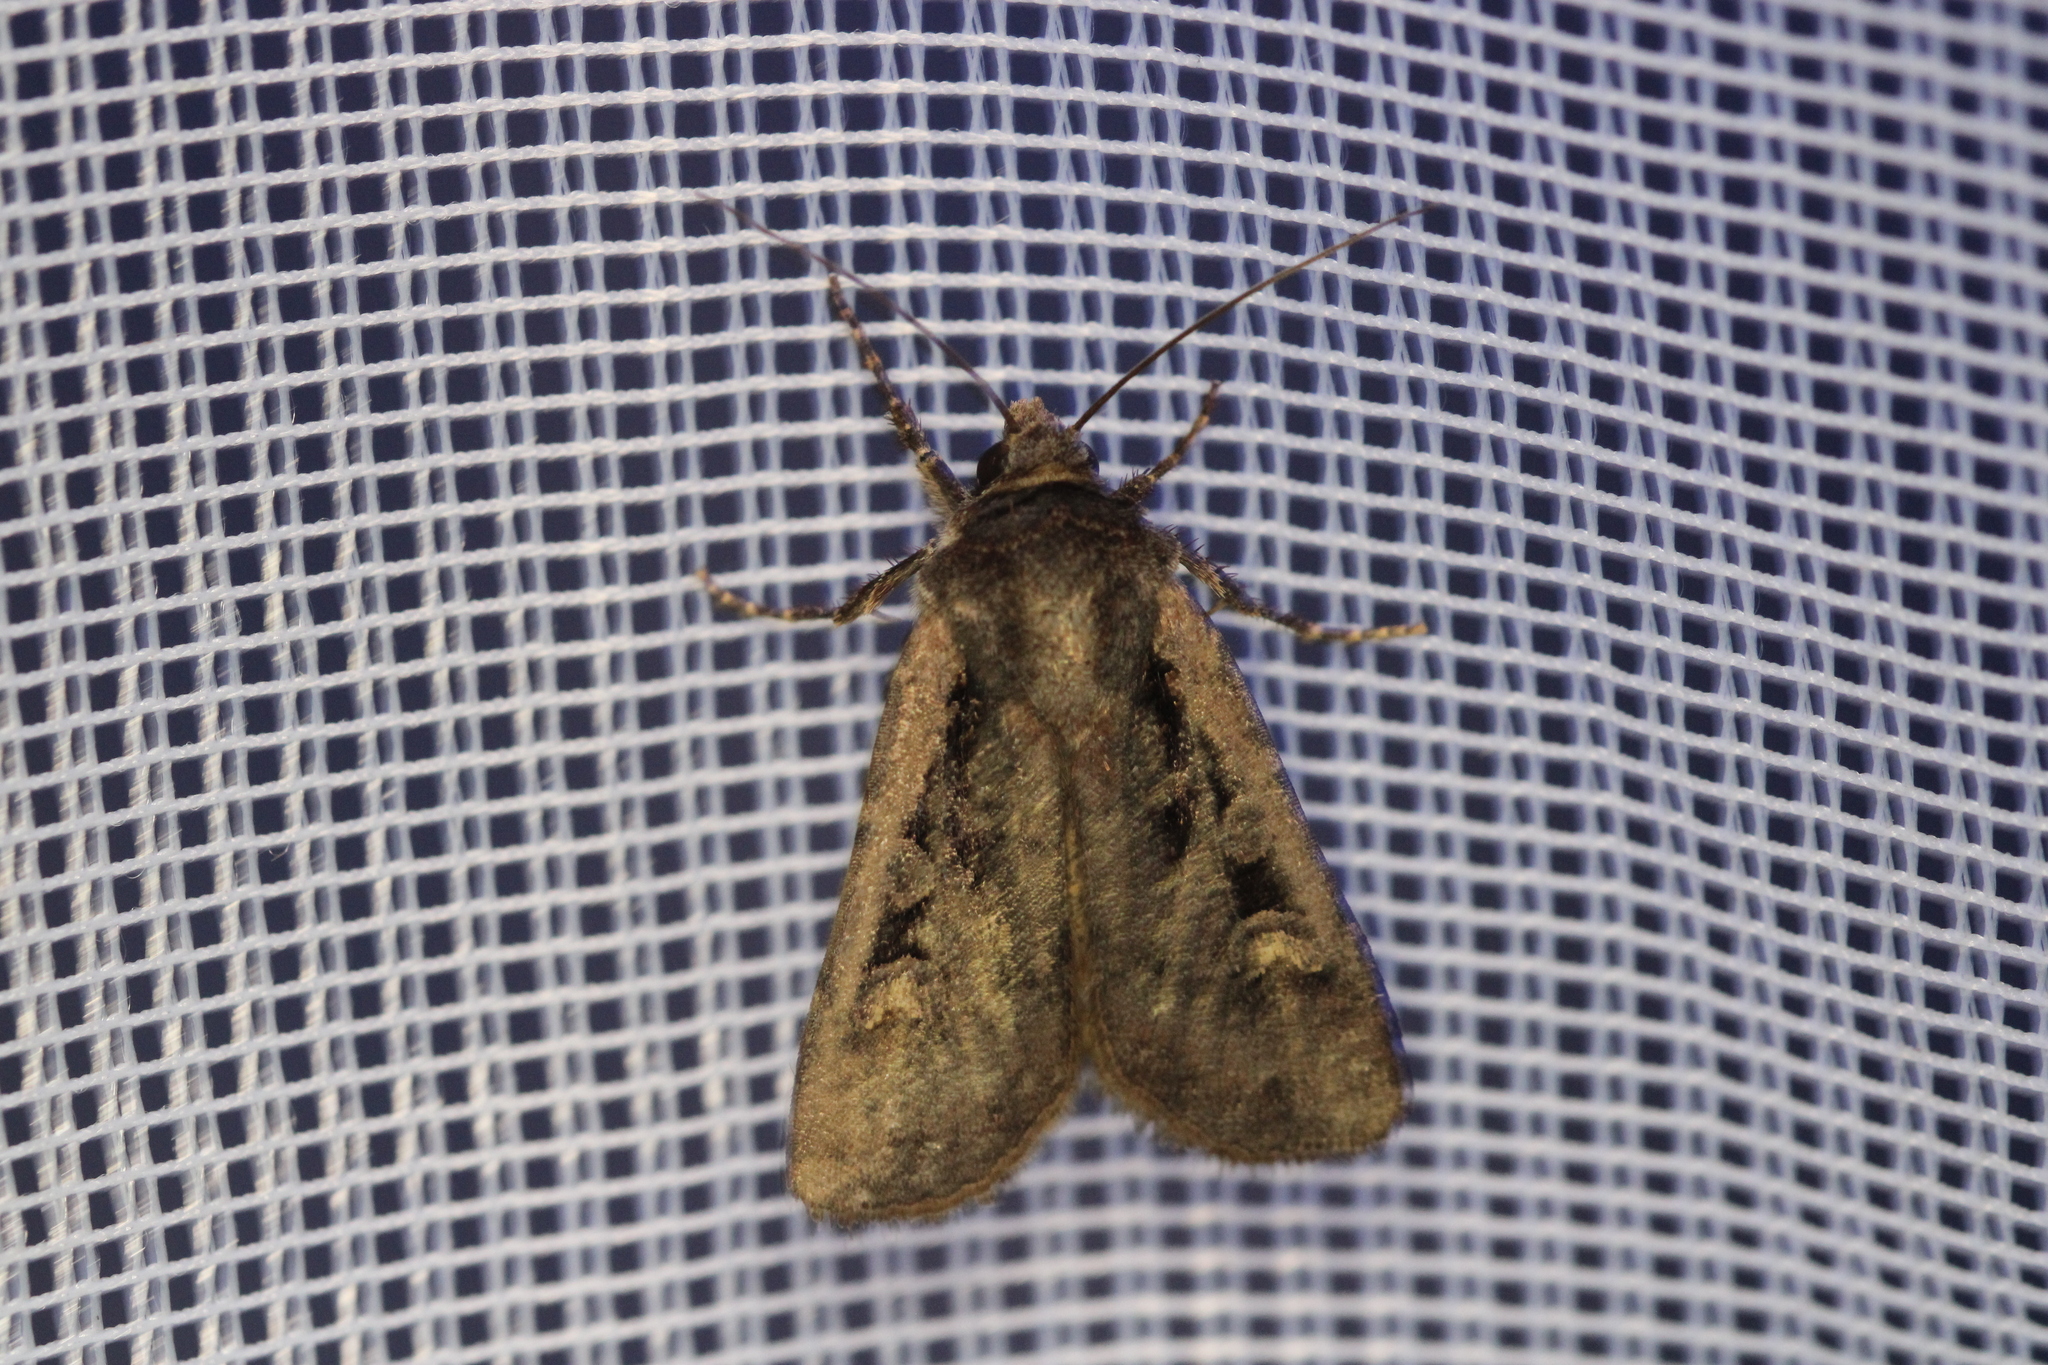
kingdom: Animalia
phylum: Arthropoda
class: Insecta
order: Lepidoptera
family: Noctuidae
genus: Euxoa
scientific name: Euxoa temera
